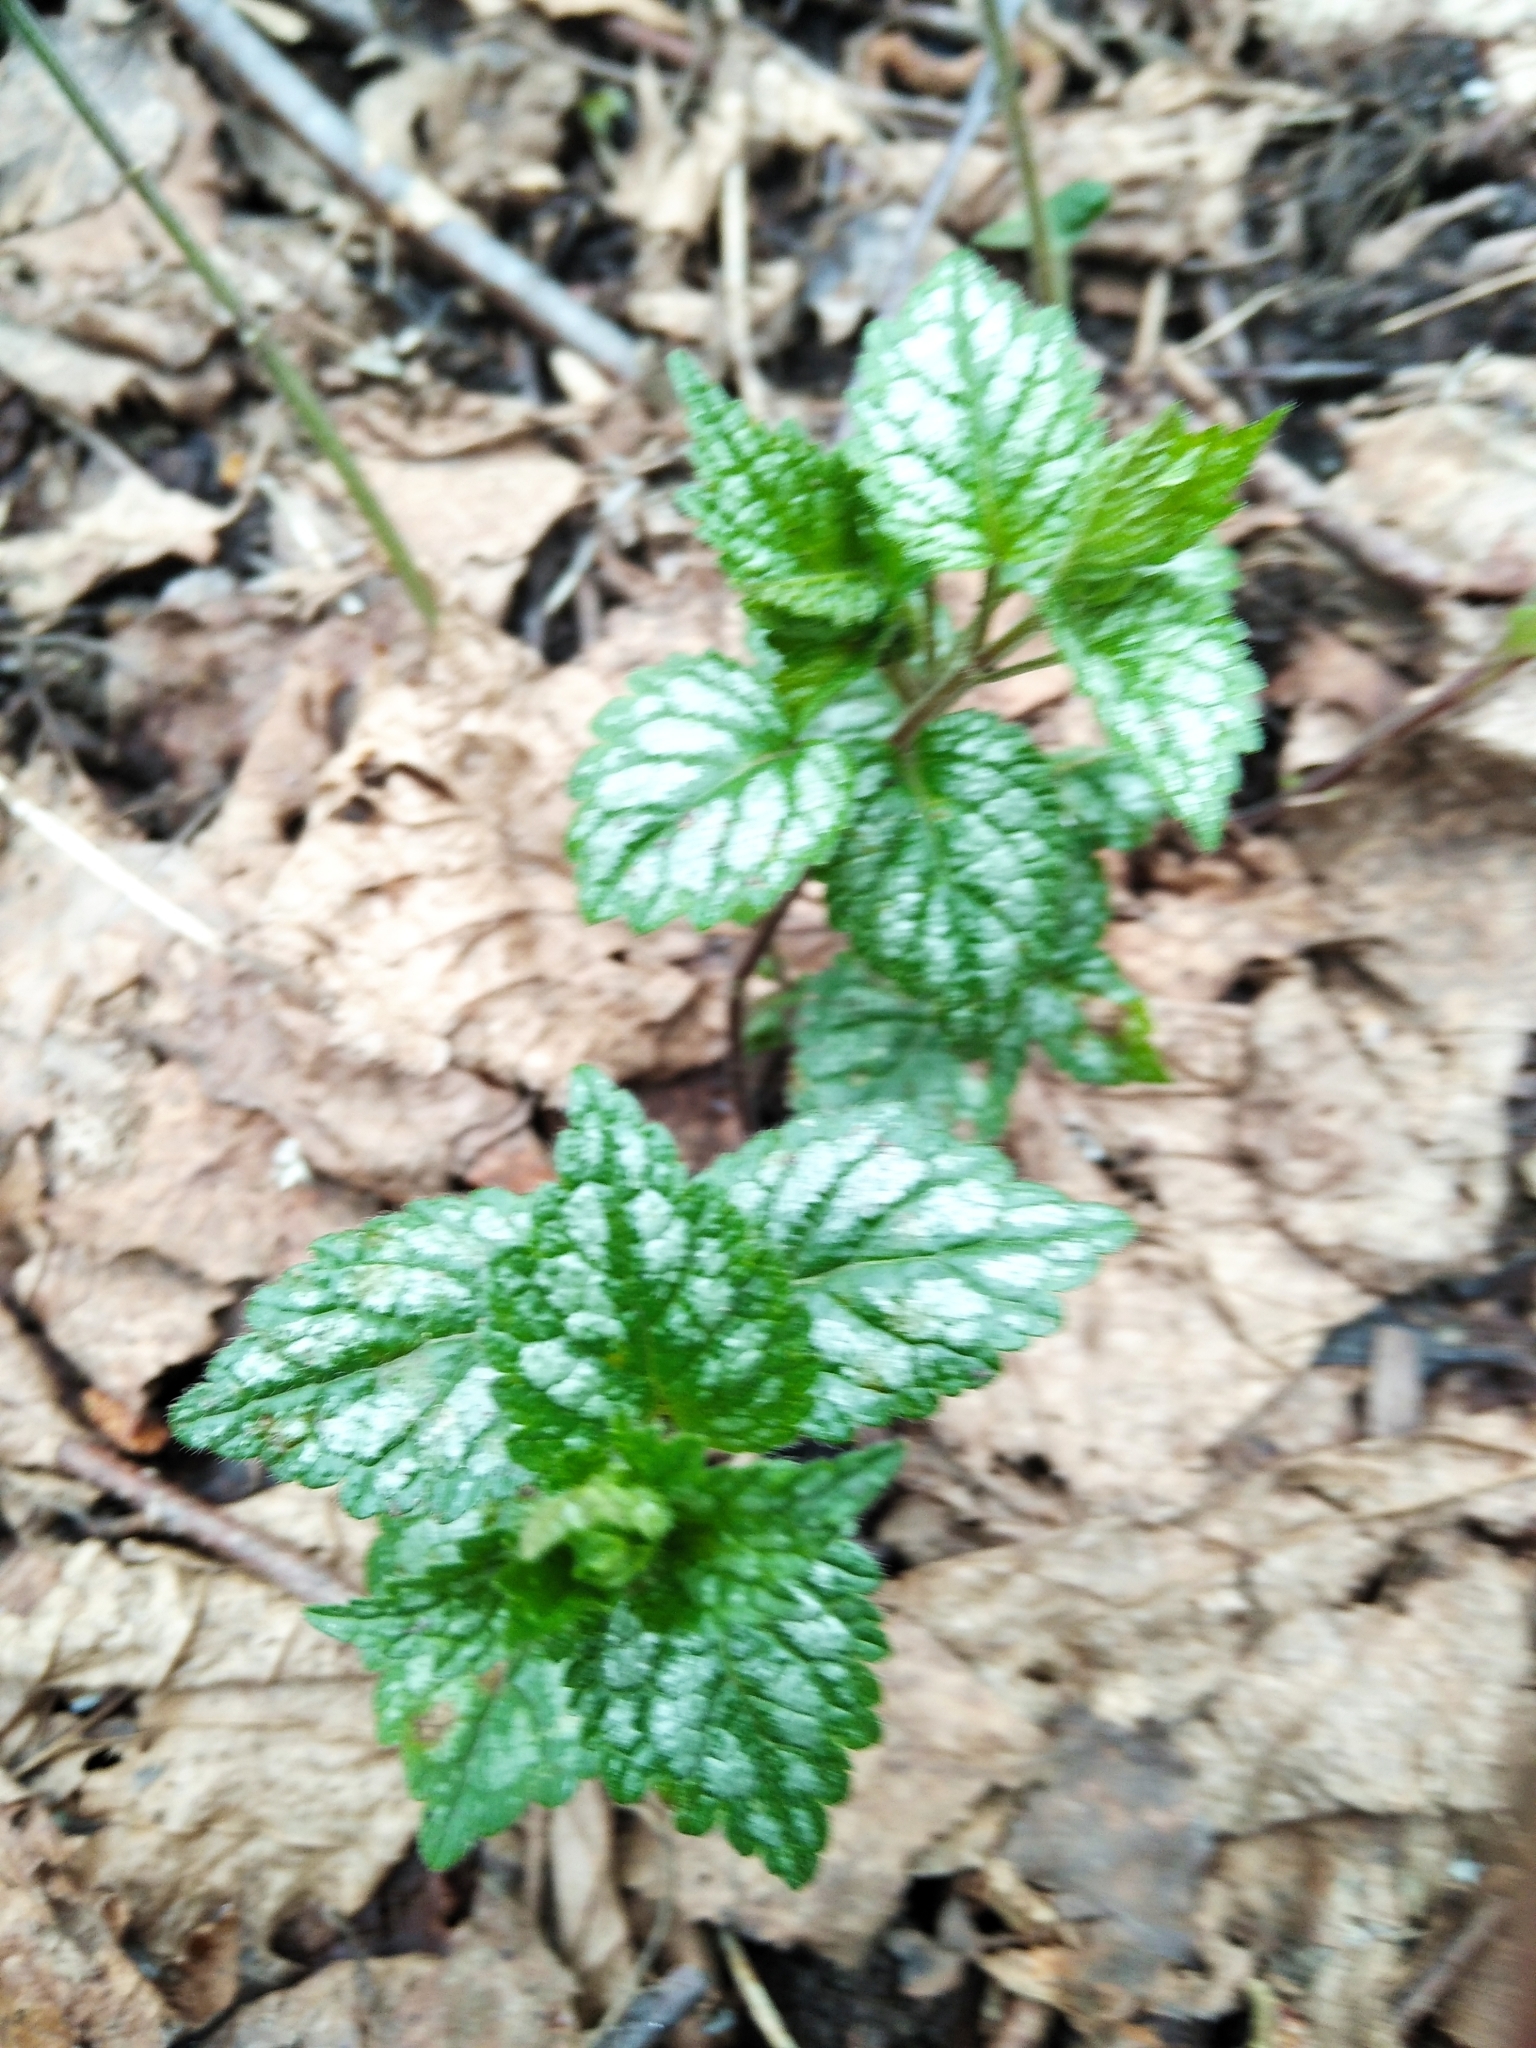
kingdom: Plantae
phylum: Tracheophyta
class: Magnoliopsida
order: Lamiales
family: Lamiaceae
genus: Lamium
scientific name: Lamium galeobdolon
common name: Yellow archangel
